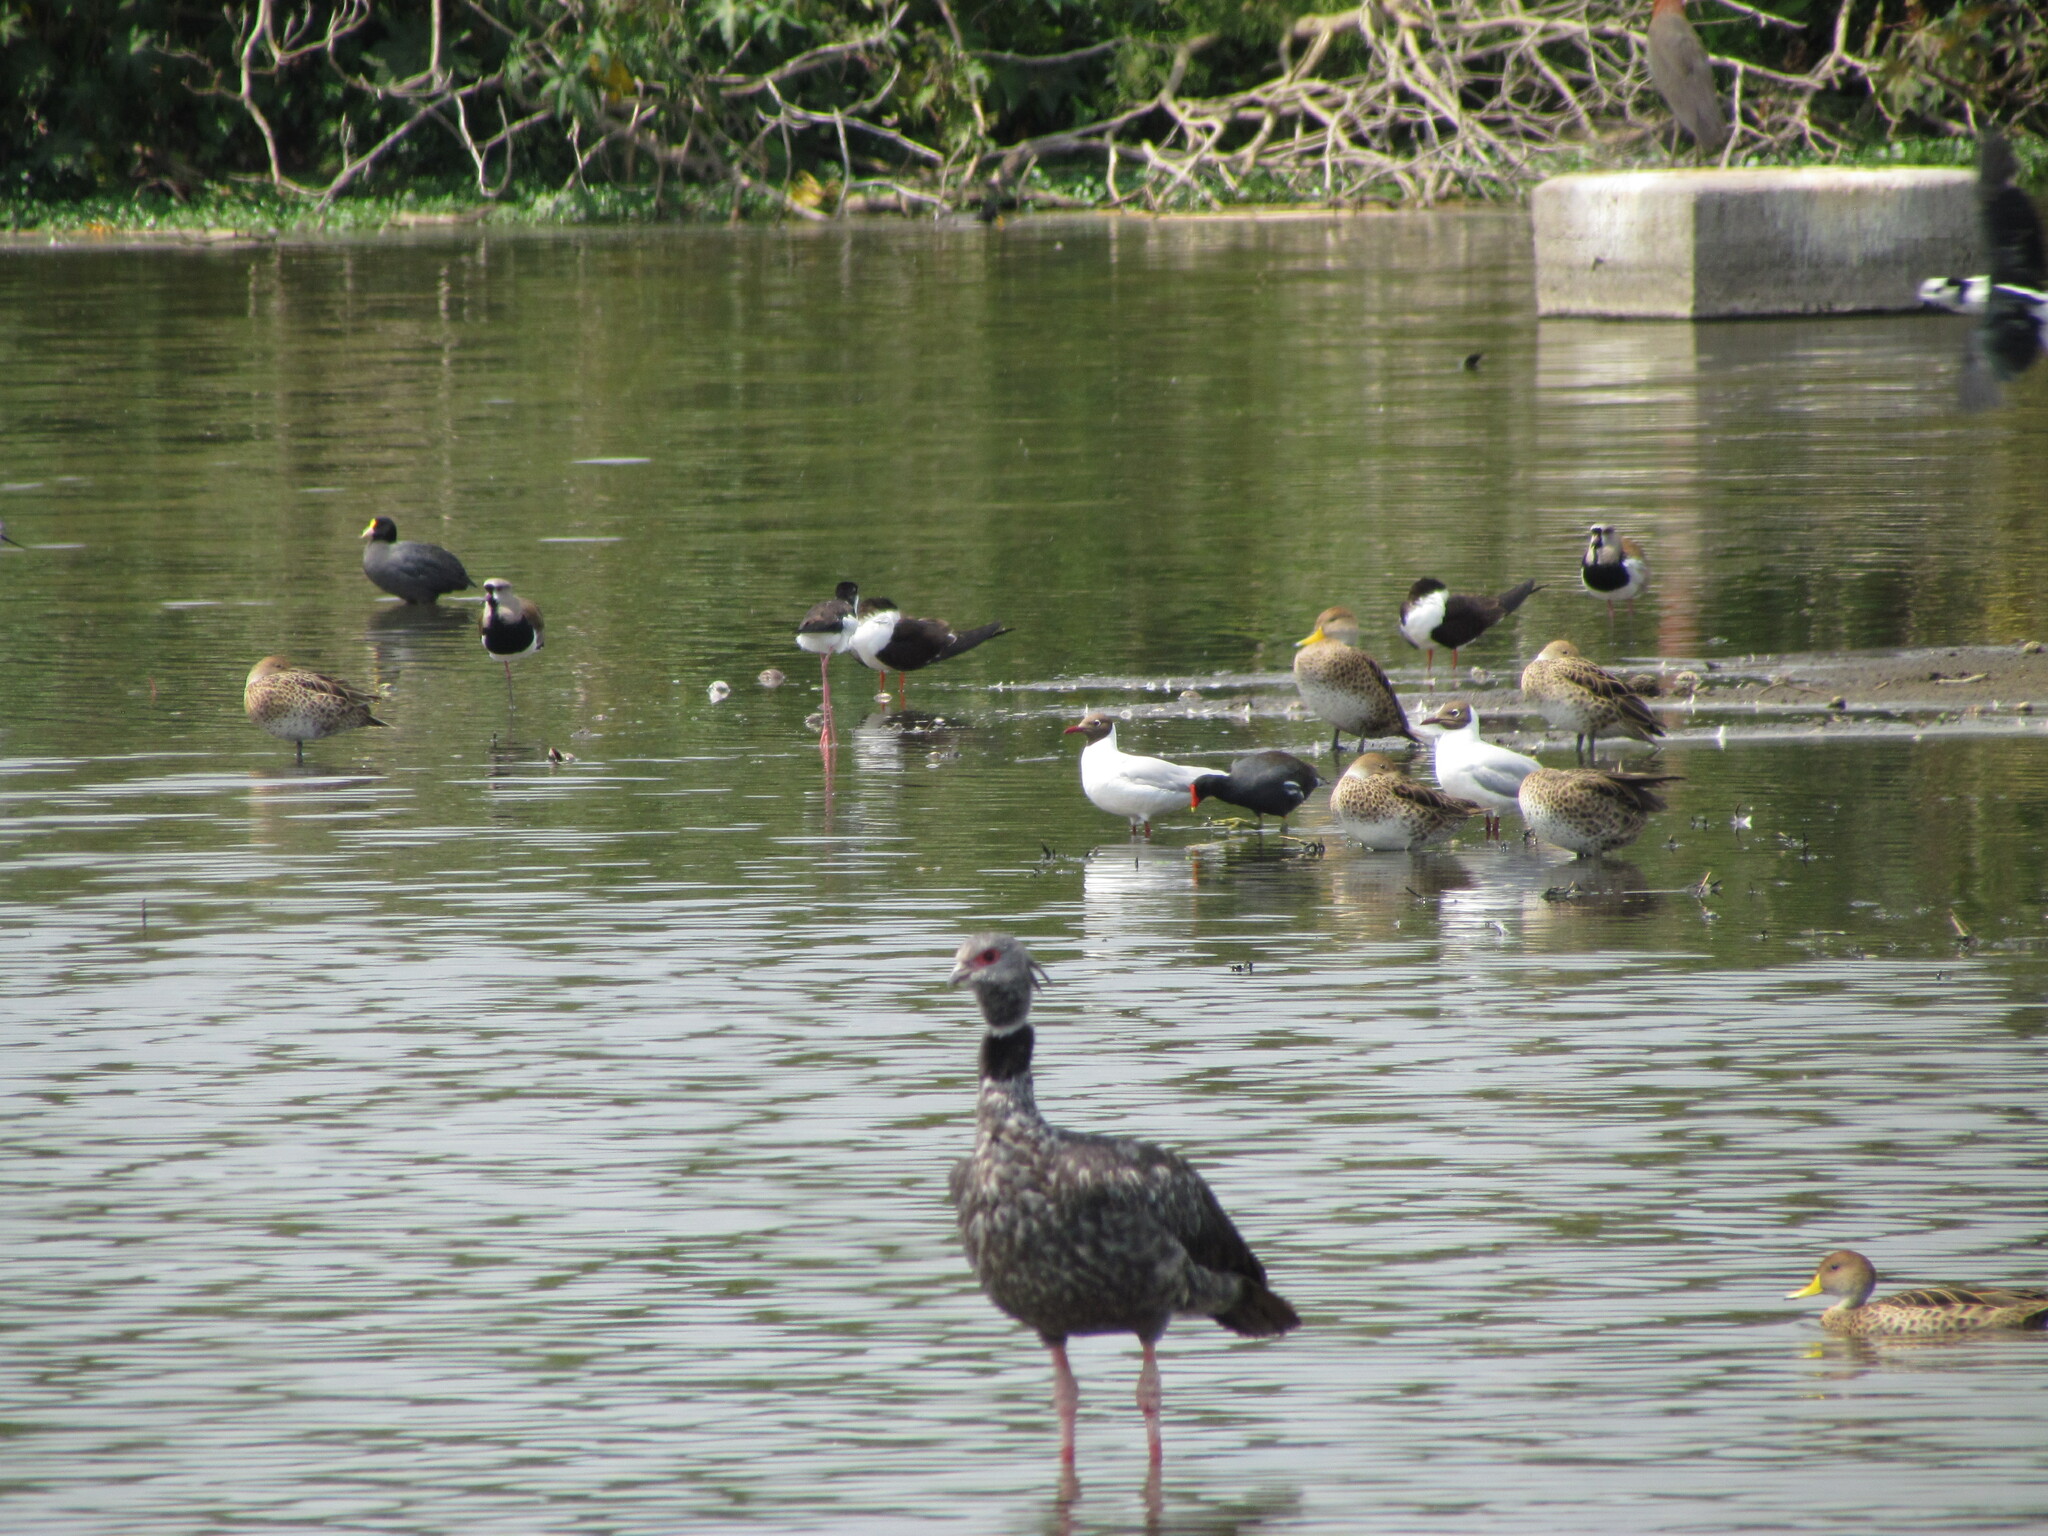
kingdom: Animalia
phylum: Chordata
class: Aves
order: Charadriiformes
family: Laridae
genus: Chroicocephalus
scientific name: Chroicocephalus maculipennis
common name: Brown-hooded gull
